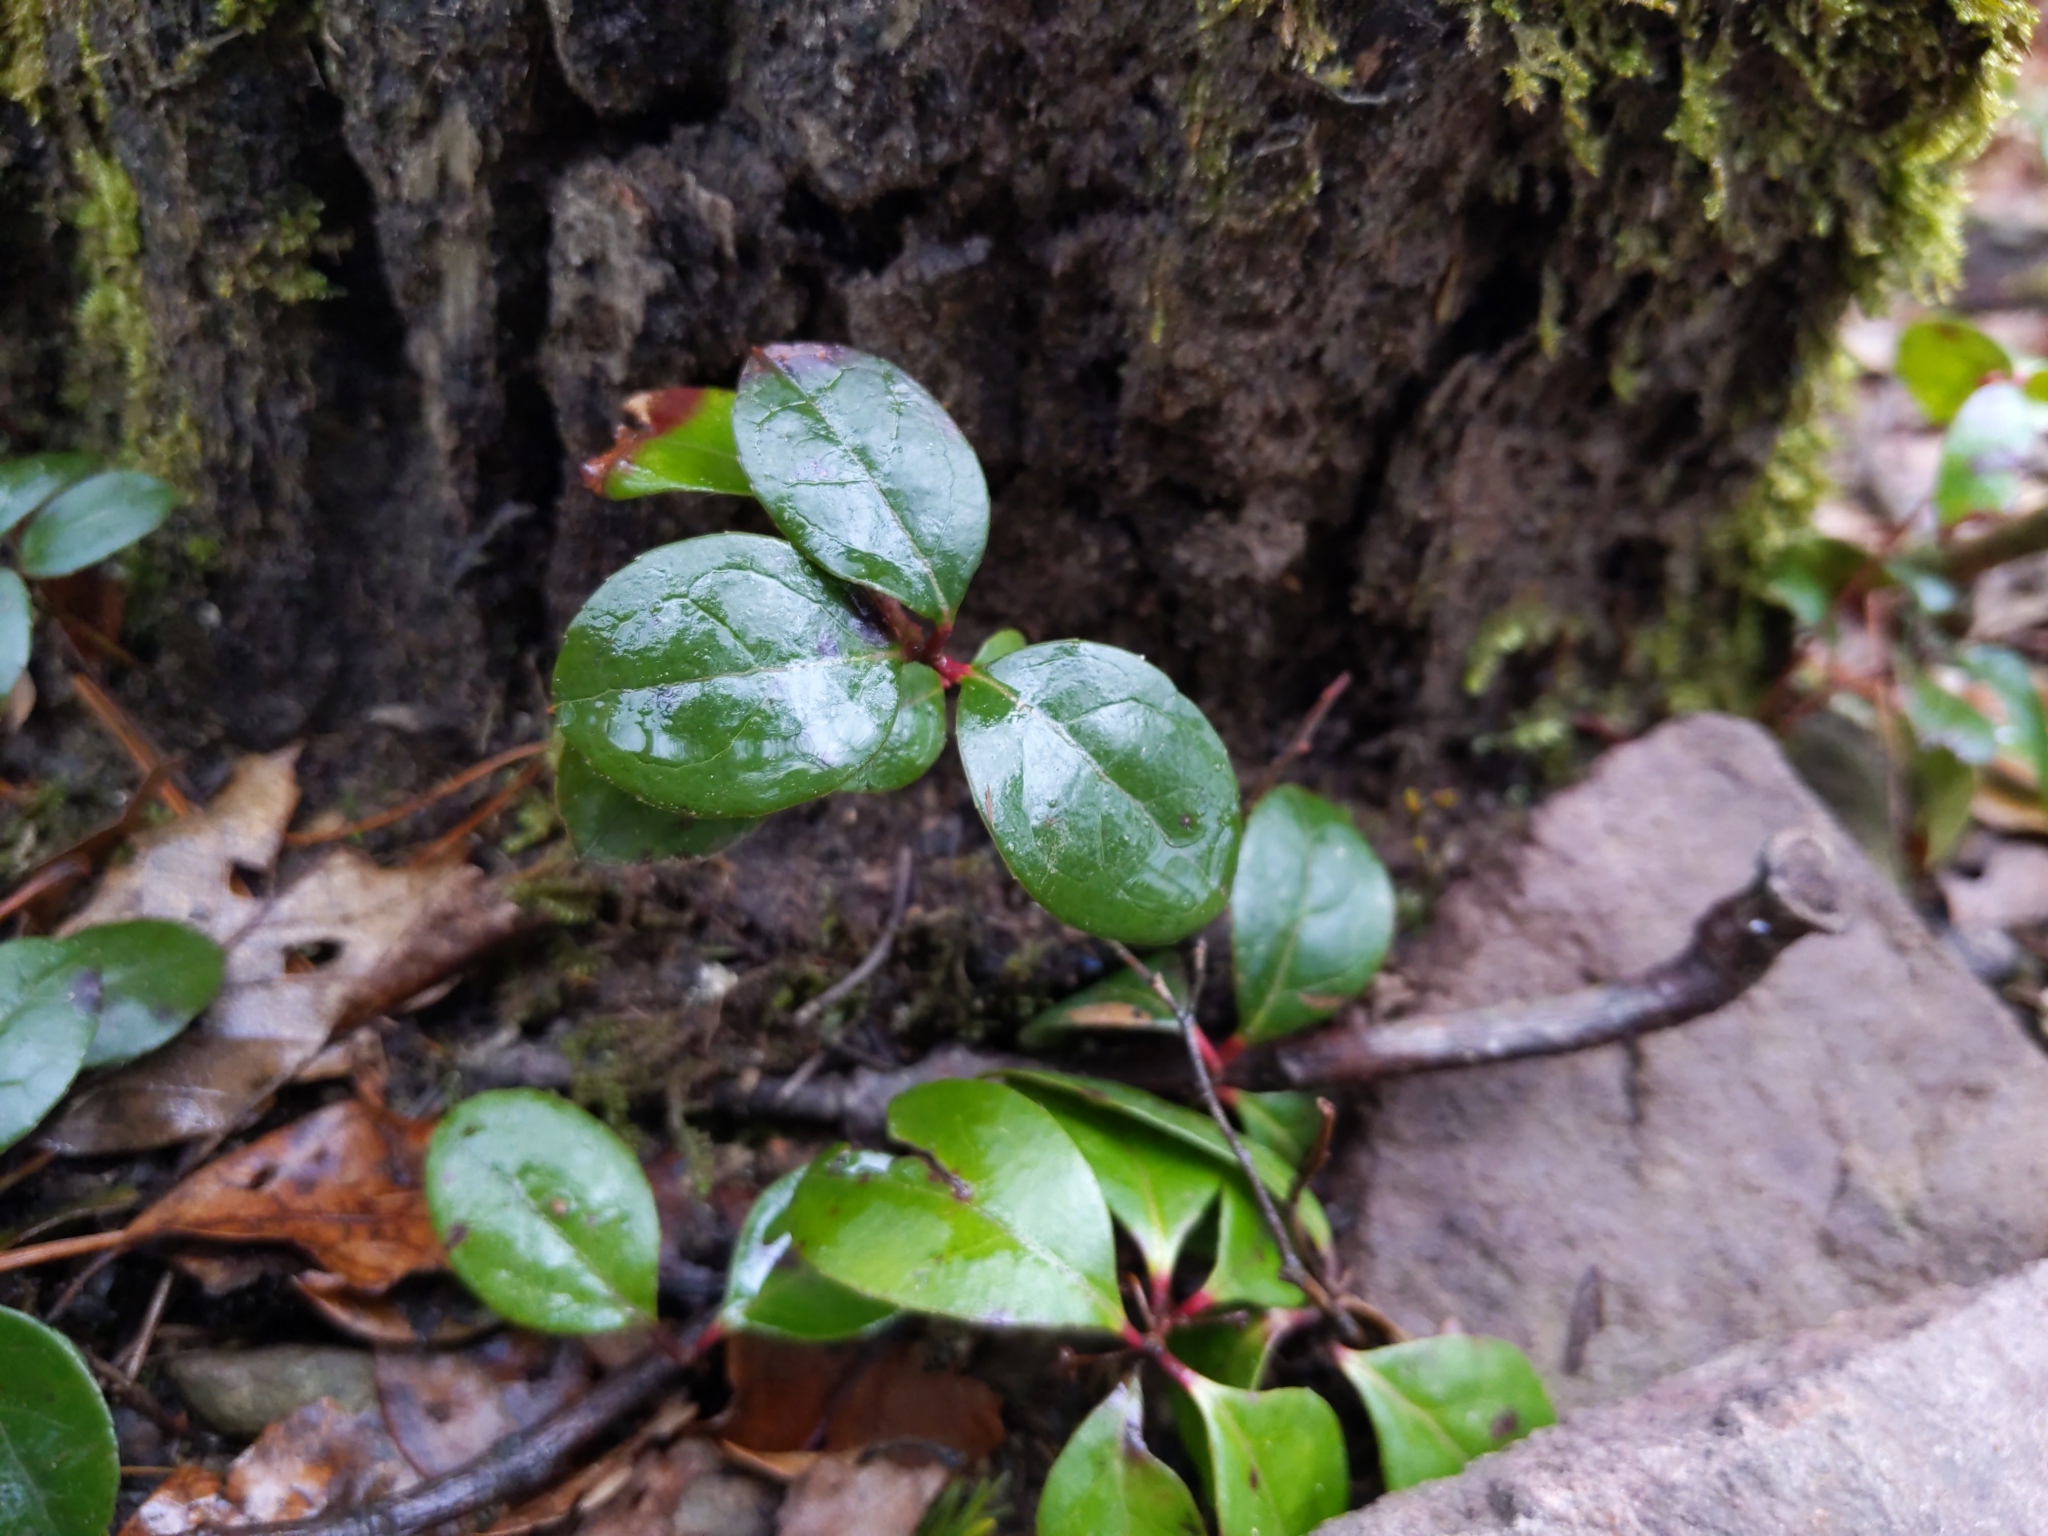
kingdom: Plantae
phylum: Tracheophyta
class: Magnoliopsida
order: Ericales
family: Ericaceae
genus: Gaultheria
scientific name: Gaultheria procumbens
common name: Checkerberry
